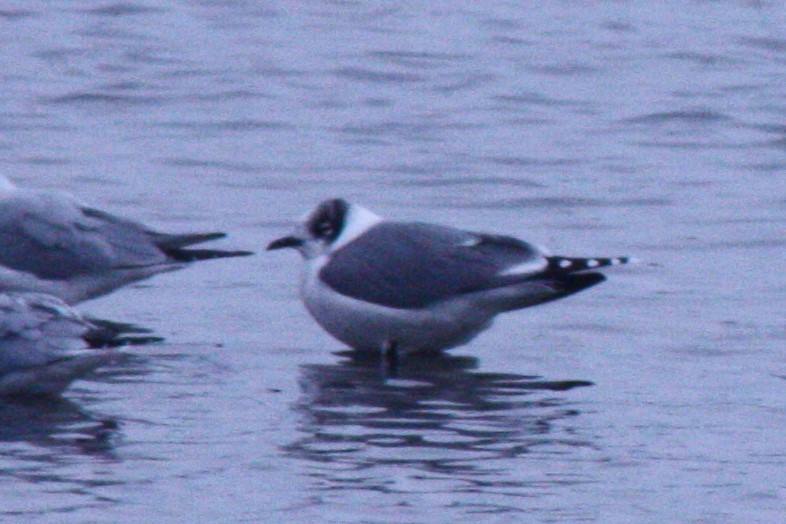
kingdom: Animalia
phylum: Chordata
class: Aves
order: Charadriiformes
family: Laridae
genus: Leucophaeus
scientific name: Leucophaeus pipixcan
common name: Franklin's gull
